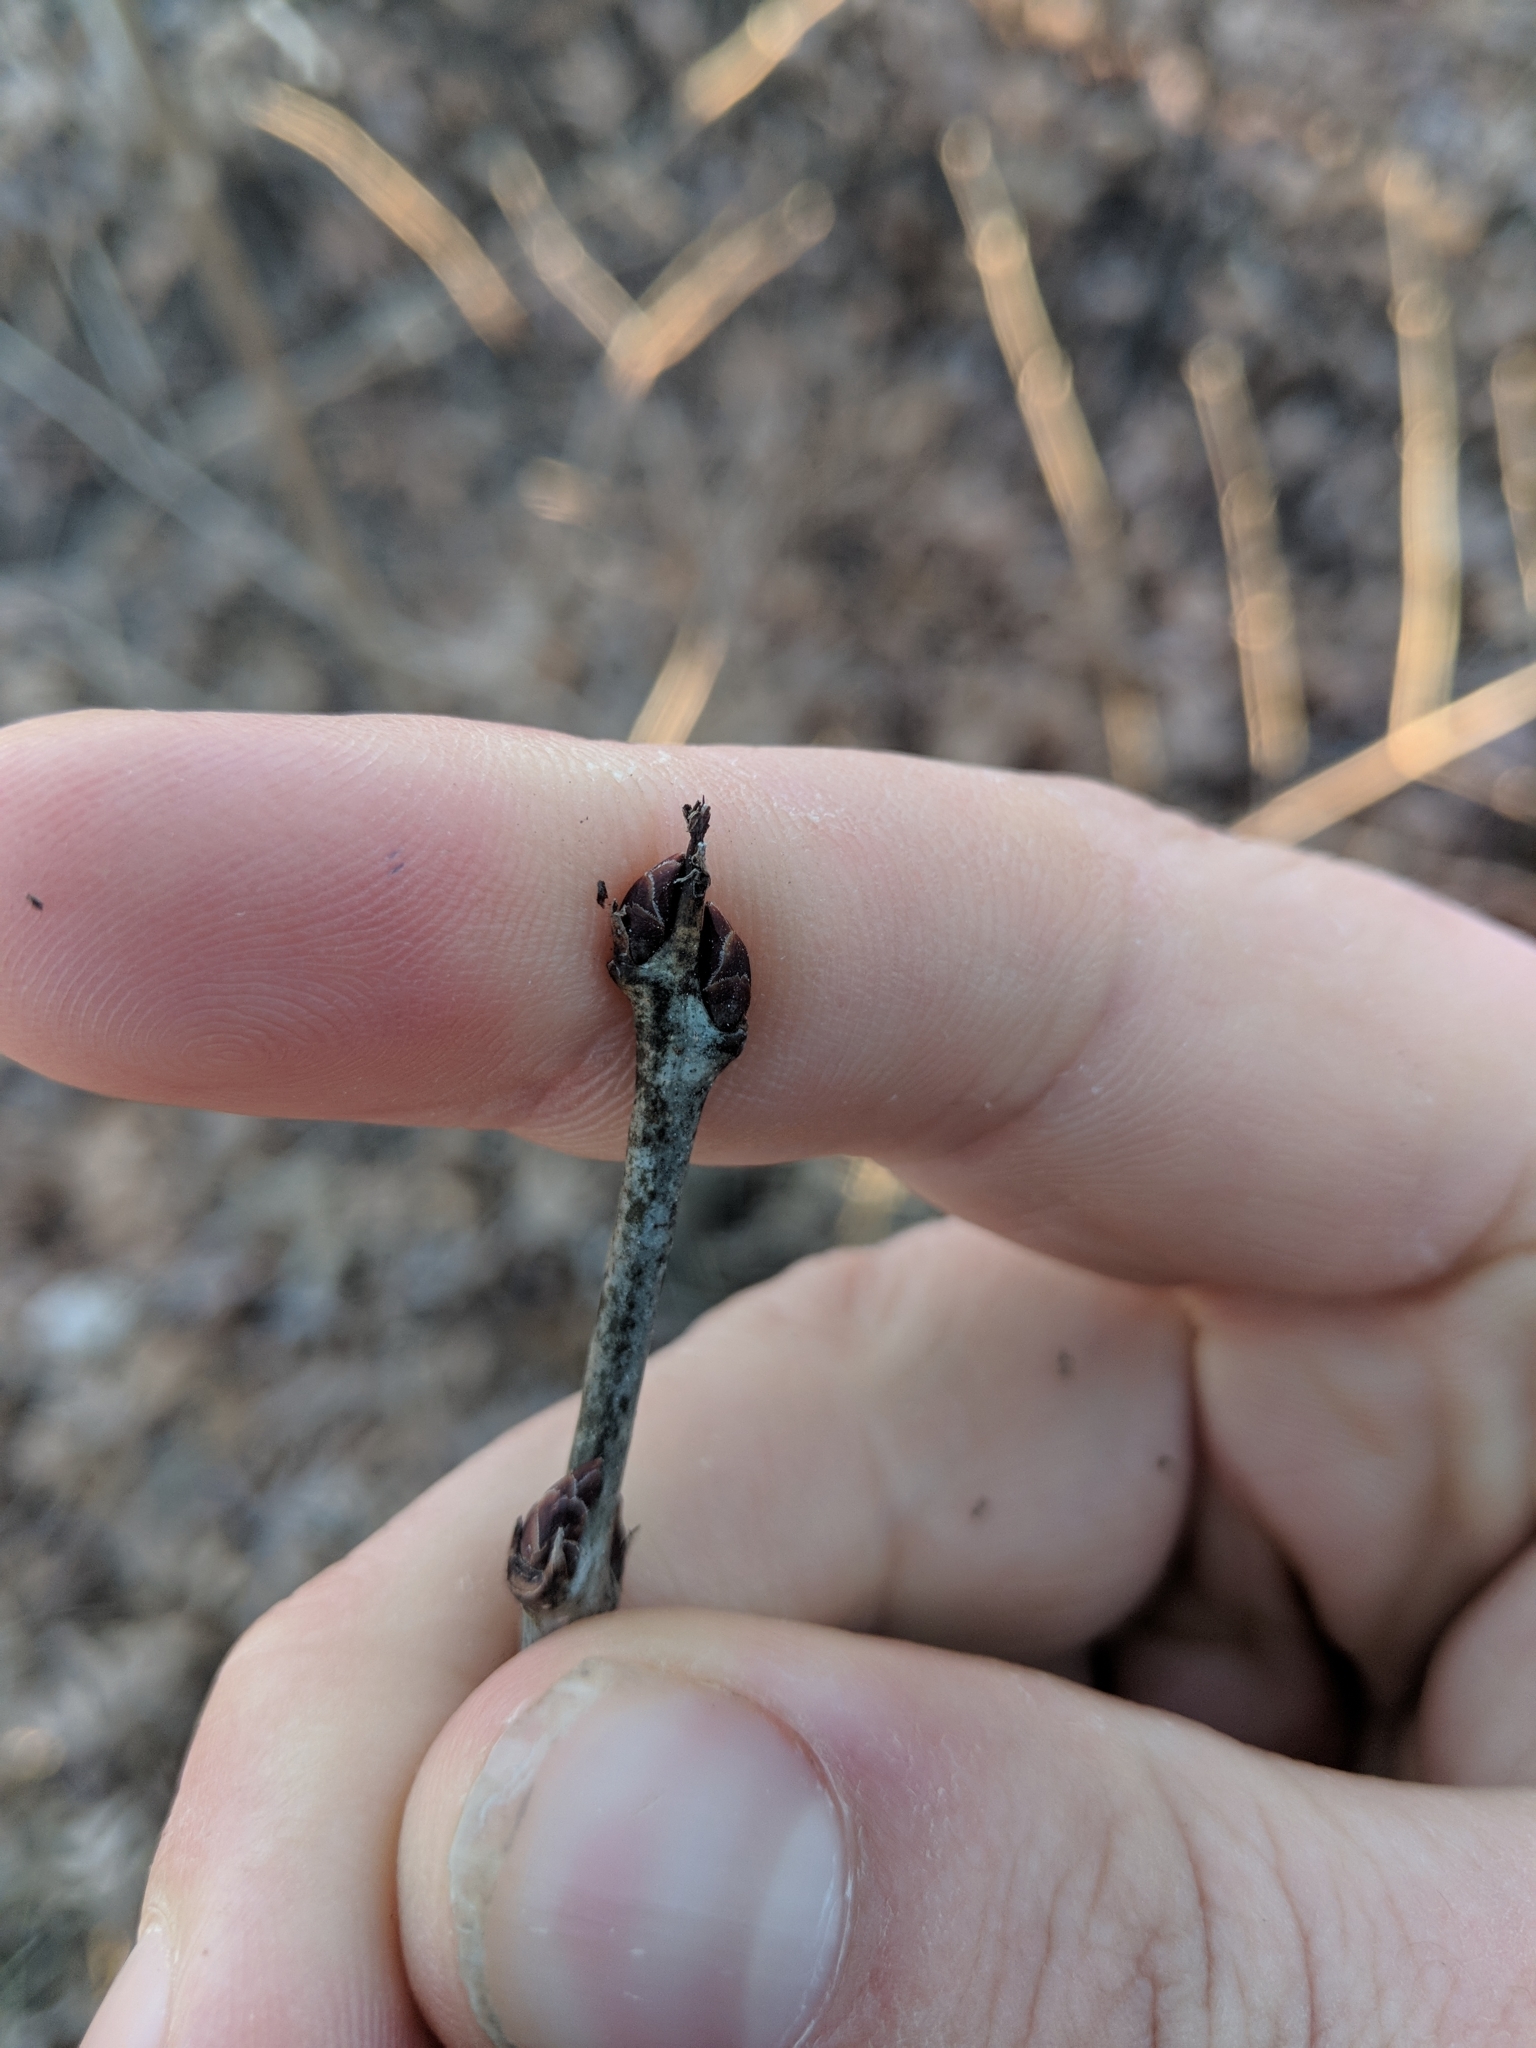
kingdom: Plantae
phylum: Tracheophyta
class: Magnoliopsida
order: Rosales
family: Rhamnaceae
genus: Rhamnus
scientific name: Rhamnus cathartica
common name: Common buckthorn
